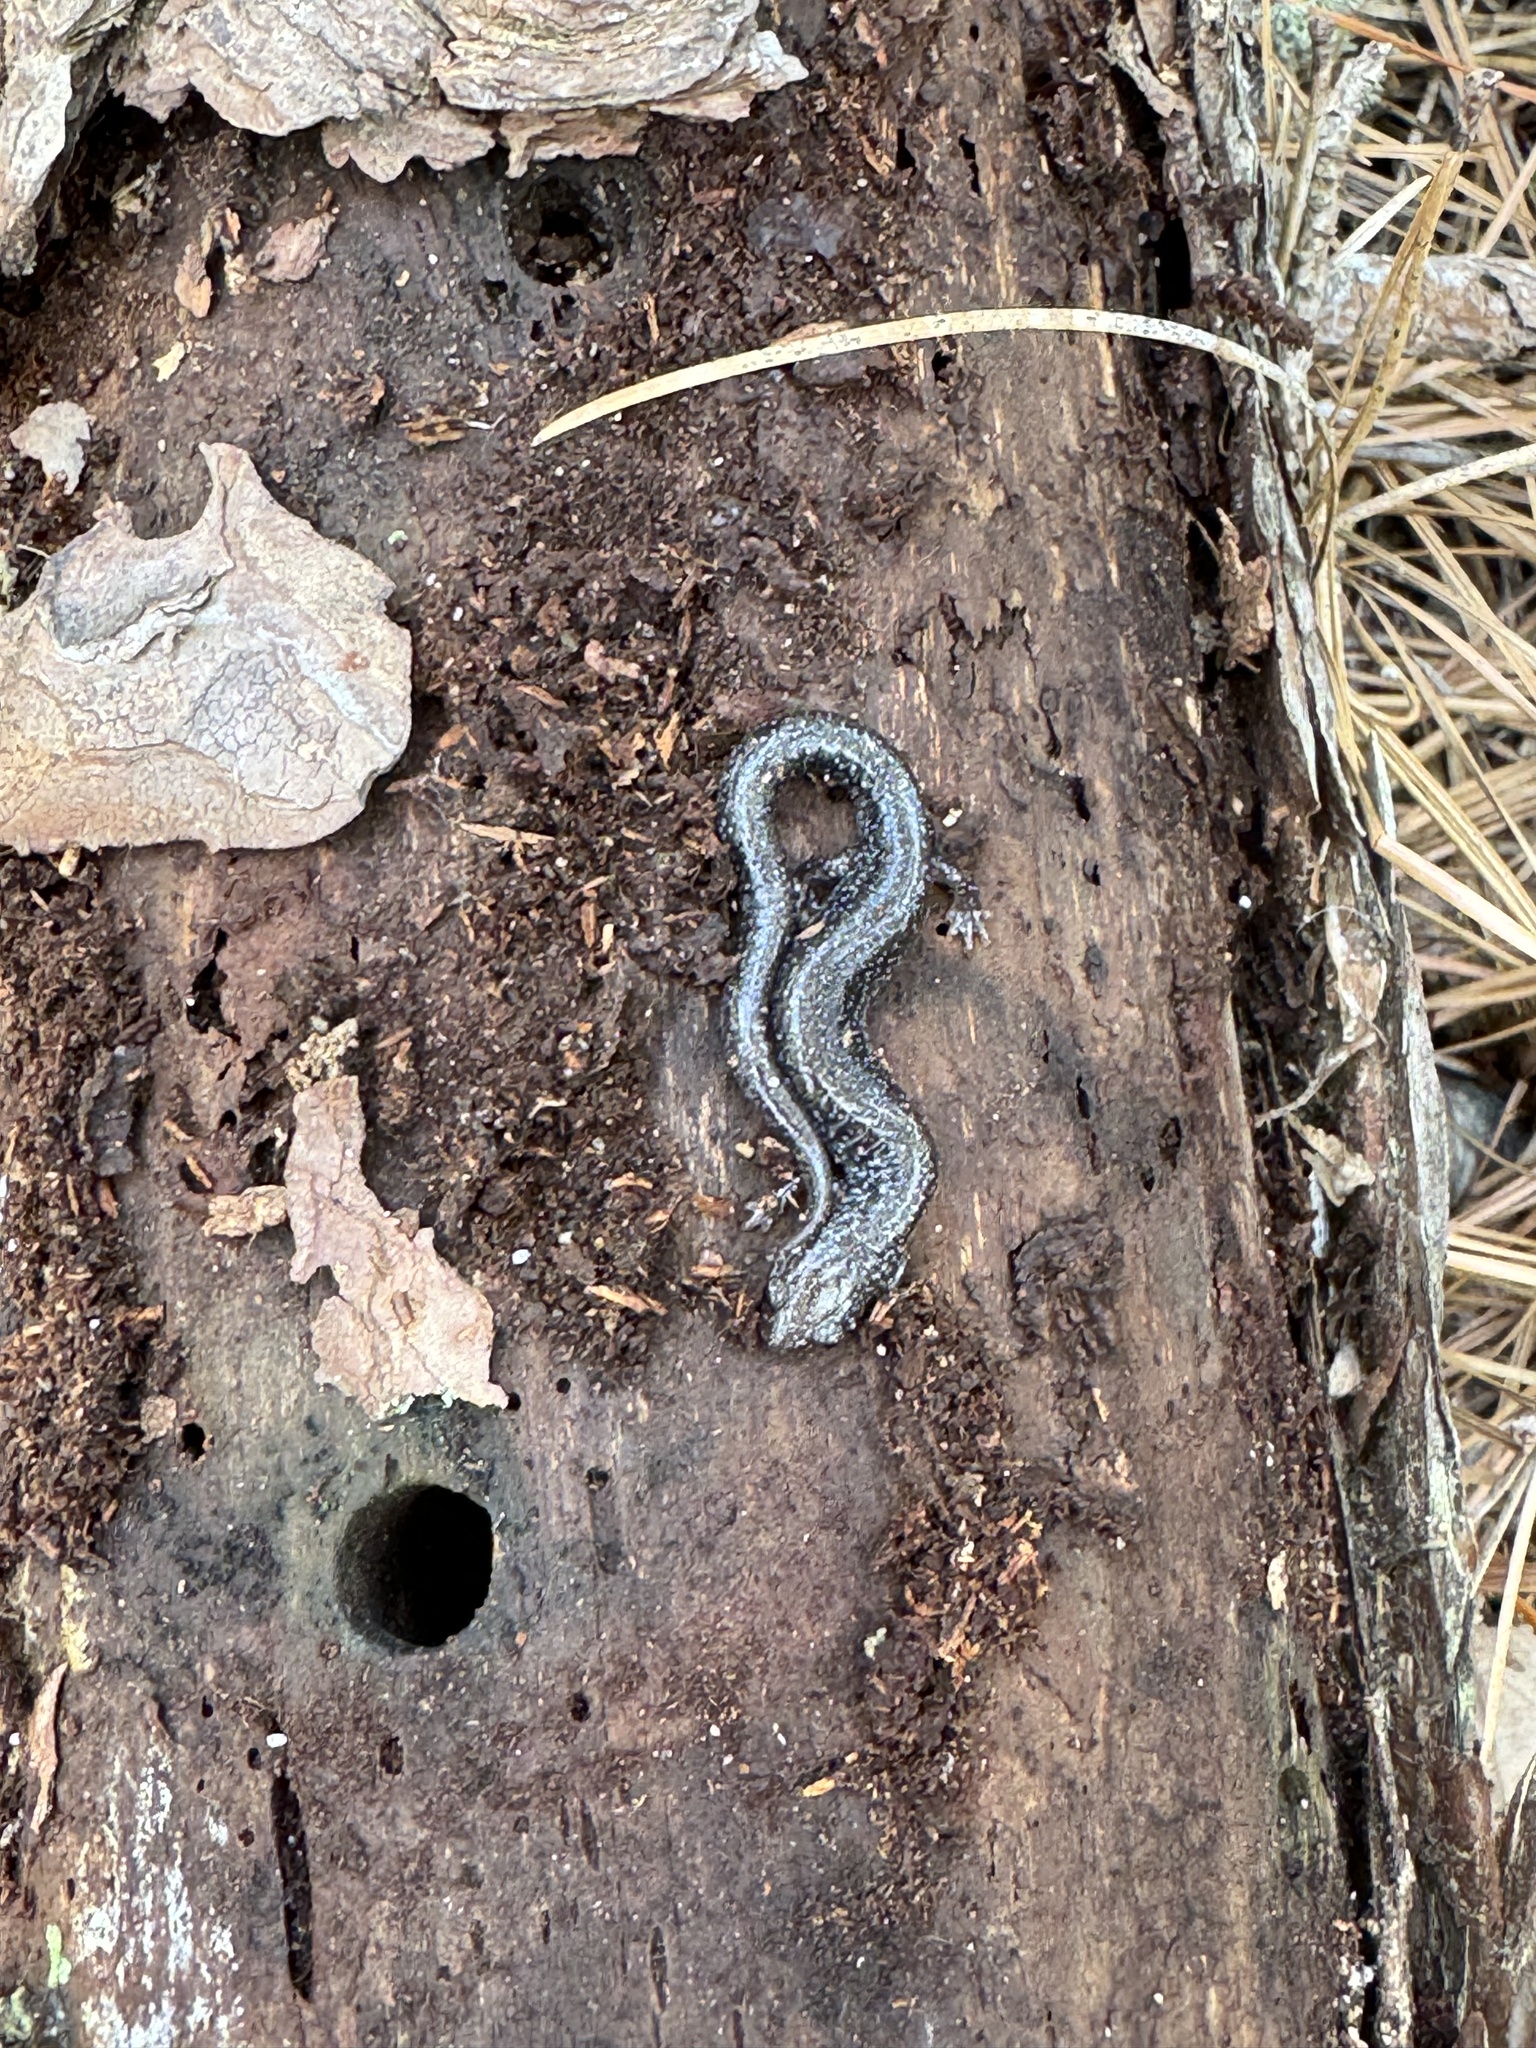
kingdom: Animalia
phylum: Chordata
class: Amphibia
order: Caudata
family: Plethodontidae
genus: Plethodon
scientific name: Plethodon cinereus
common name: Redback salamander
